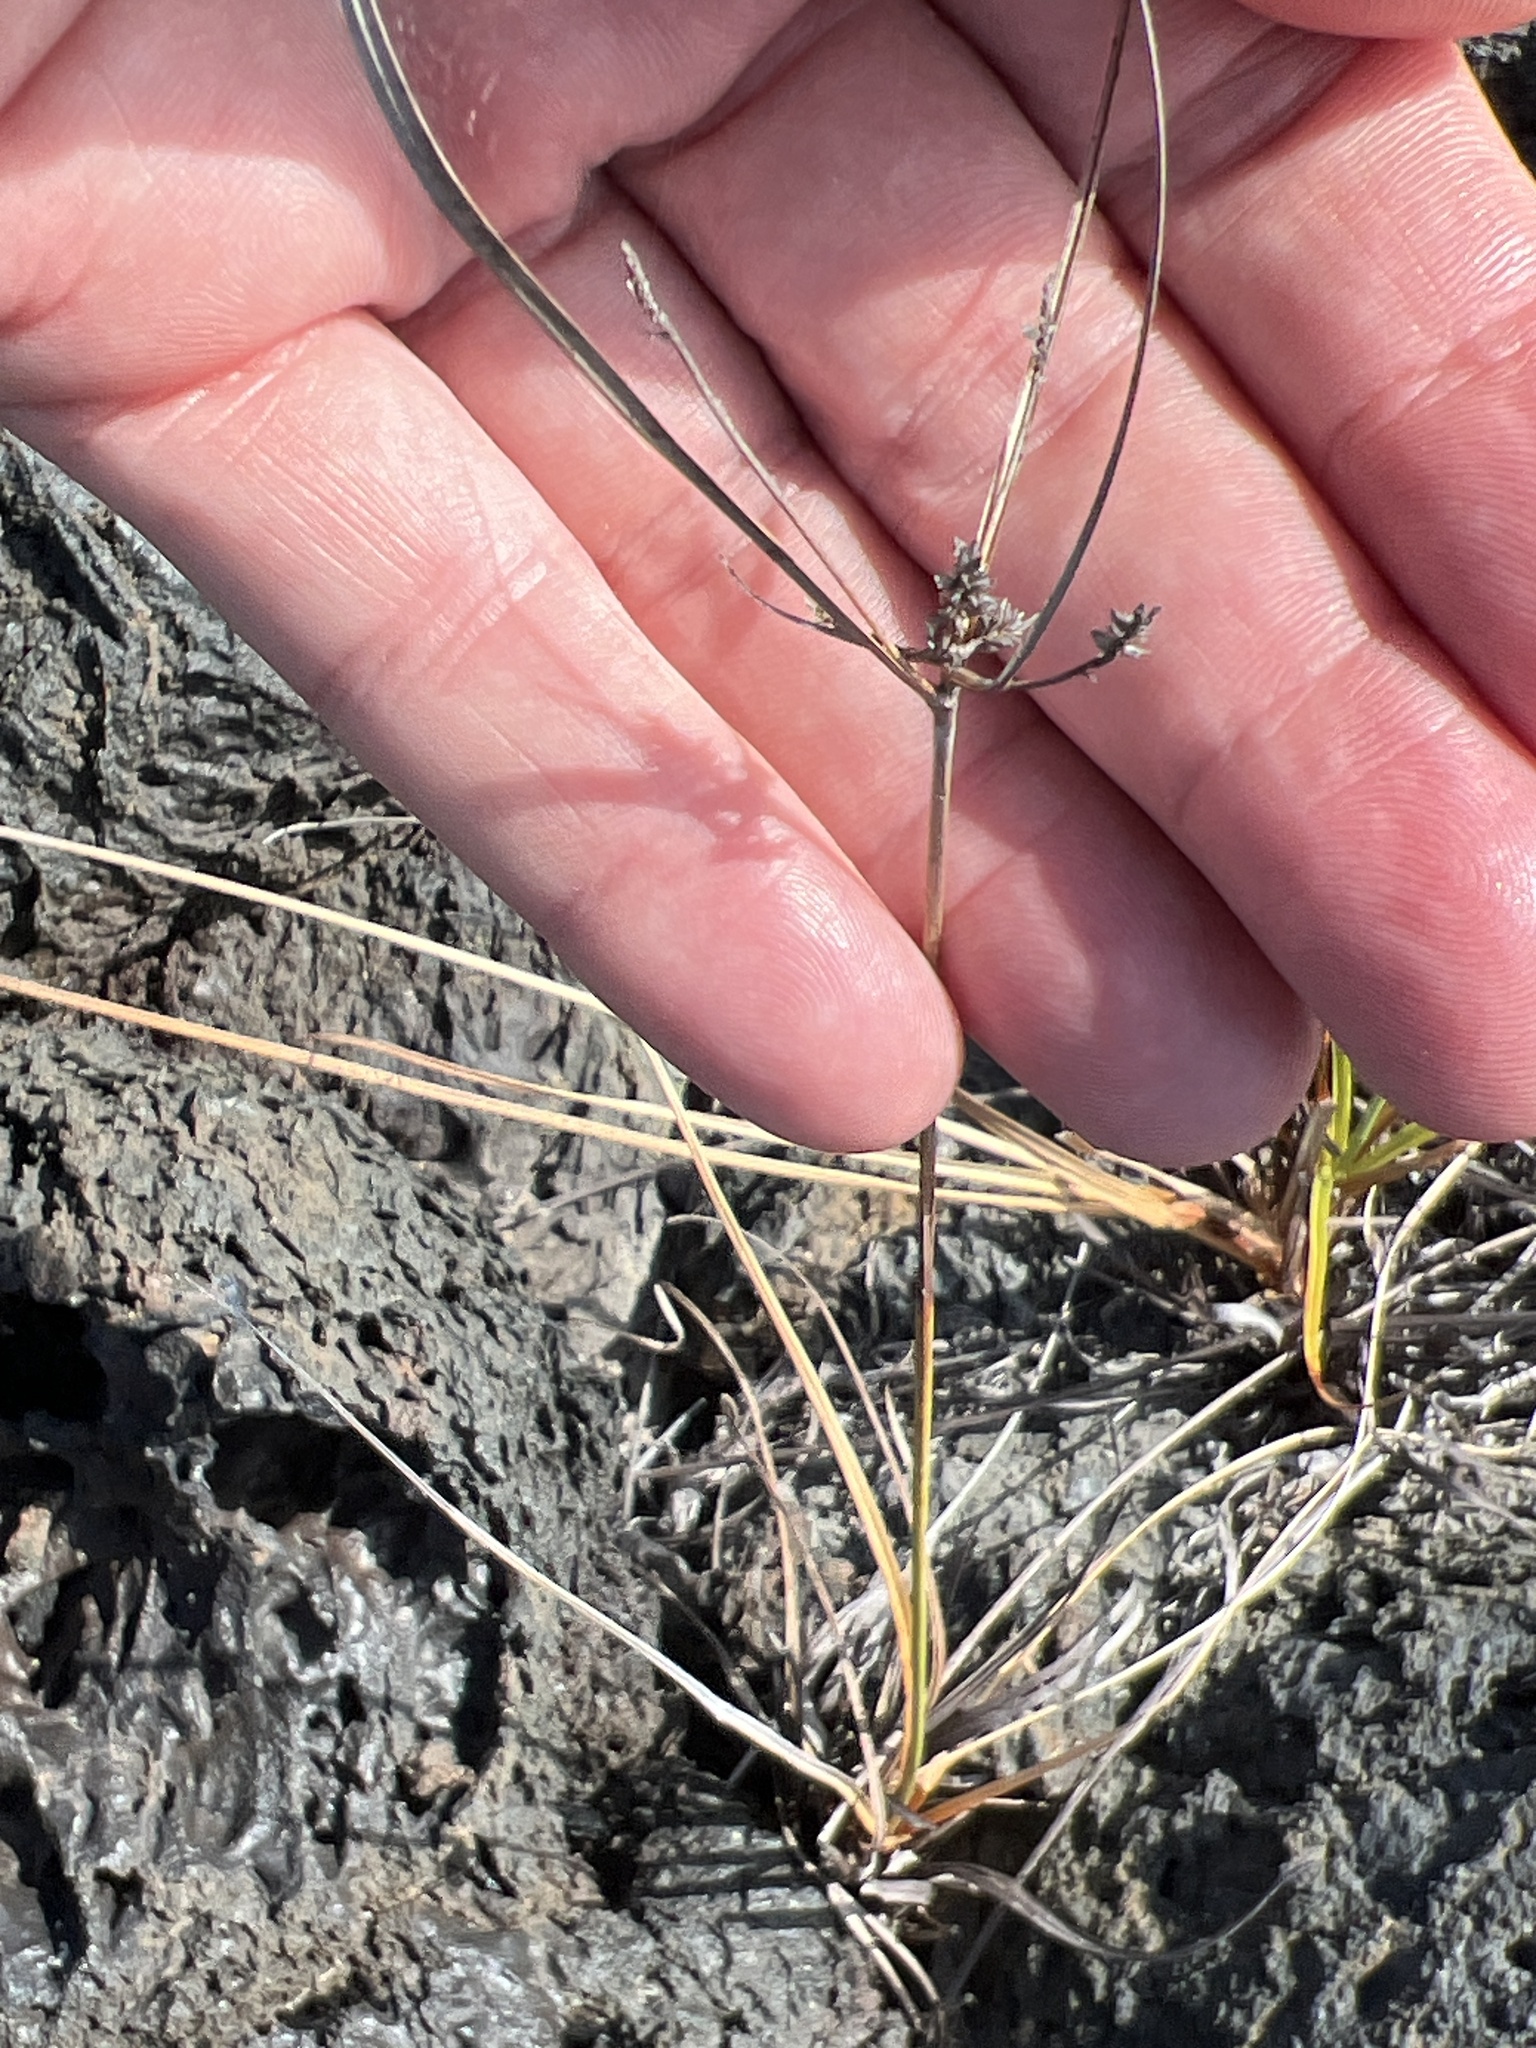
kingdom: Plantae
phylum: Tracheophyta
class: Liliopsida
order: Poales
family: Cyperaceae
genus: Cyperus
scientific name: Cyperus anderssonii
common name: Andersson's sedge
